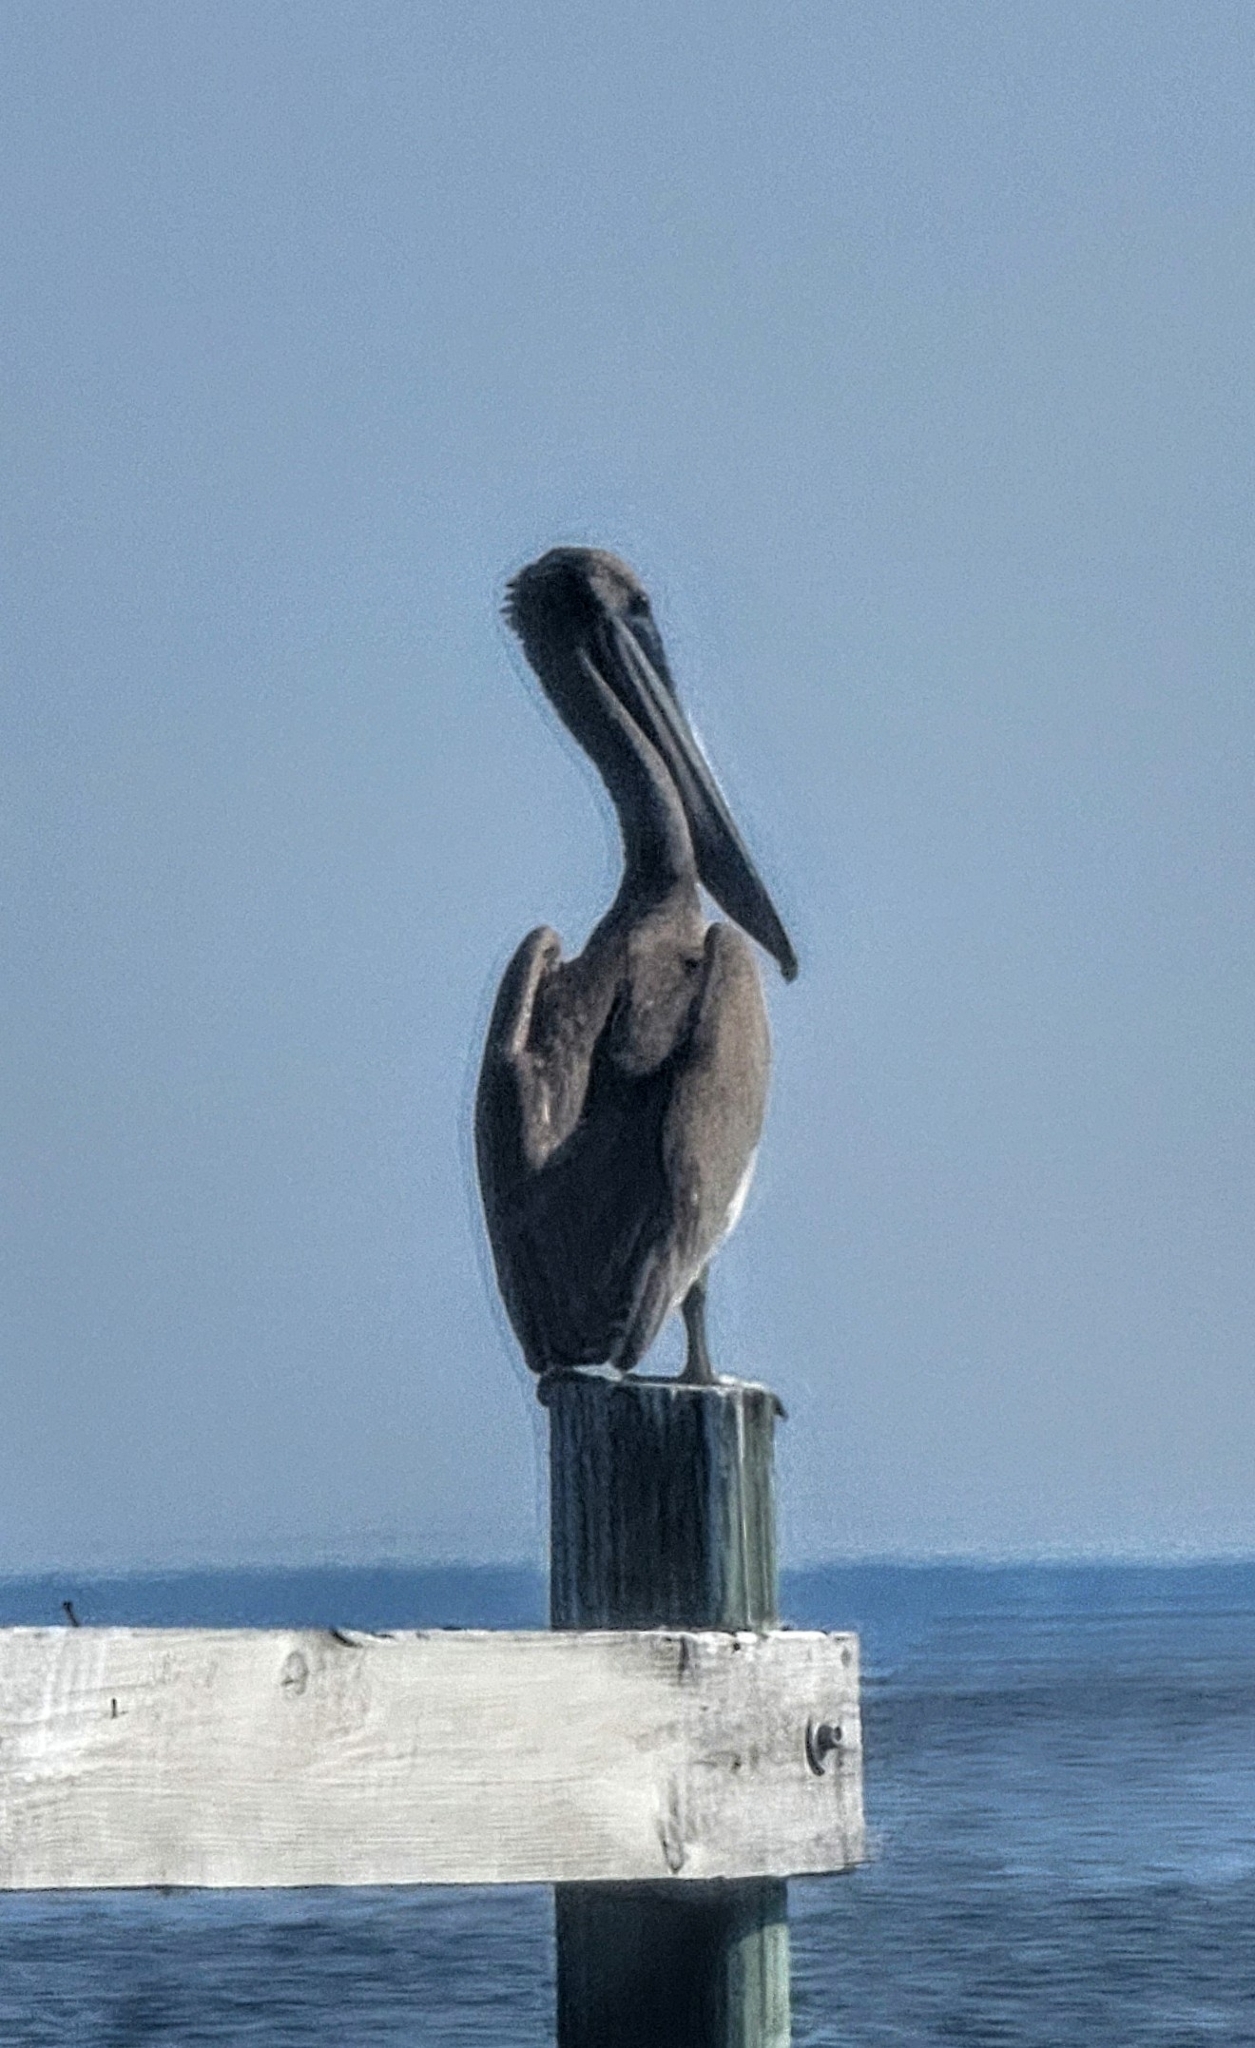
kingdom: Animalia
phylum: Chordata
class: Aves
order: Pelecaniformes
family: Pelecanidae
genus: Pelecanus
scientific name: Pelecanus occidentalis
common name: Brown pelican
